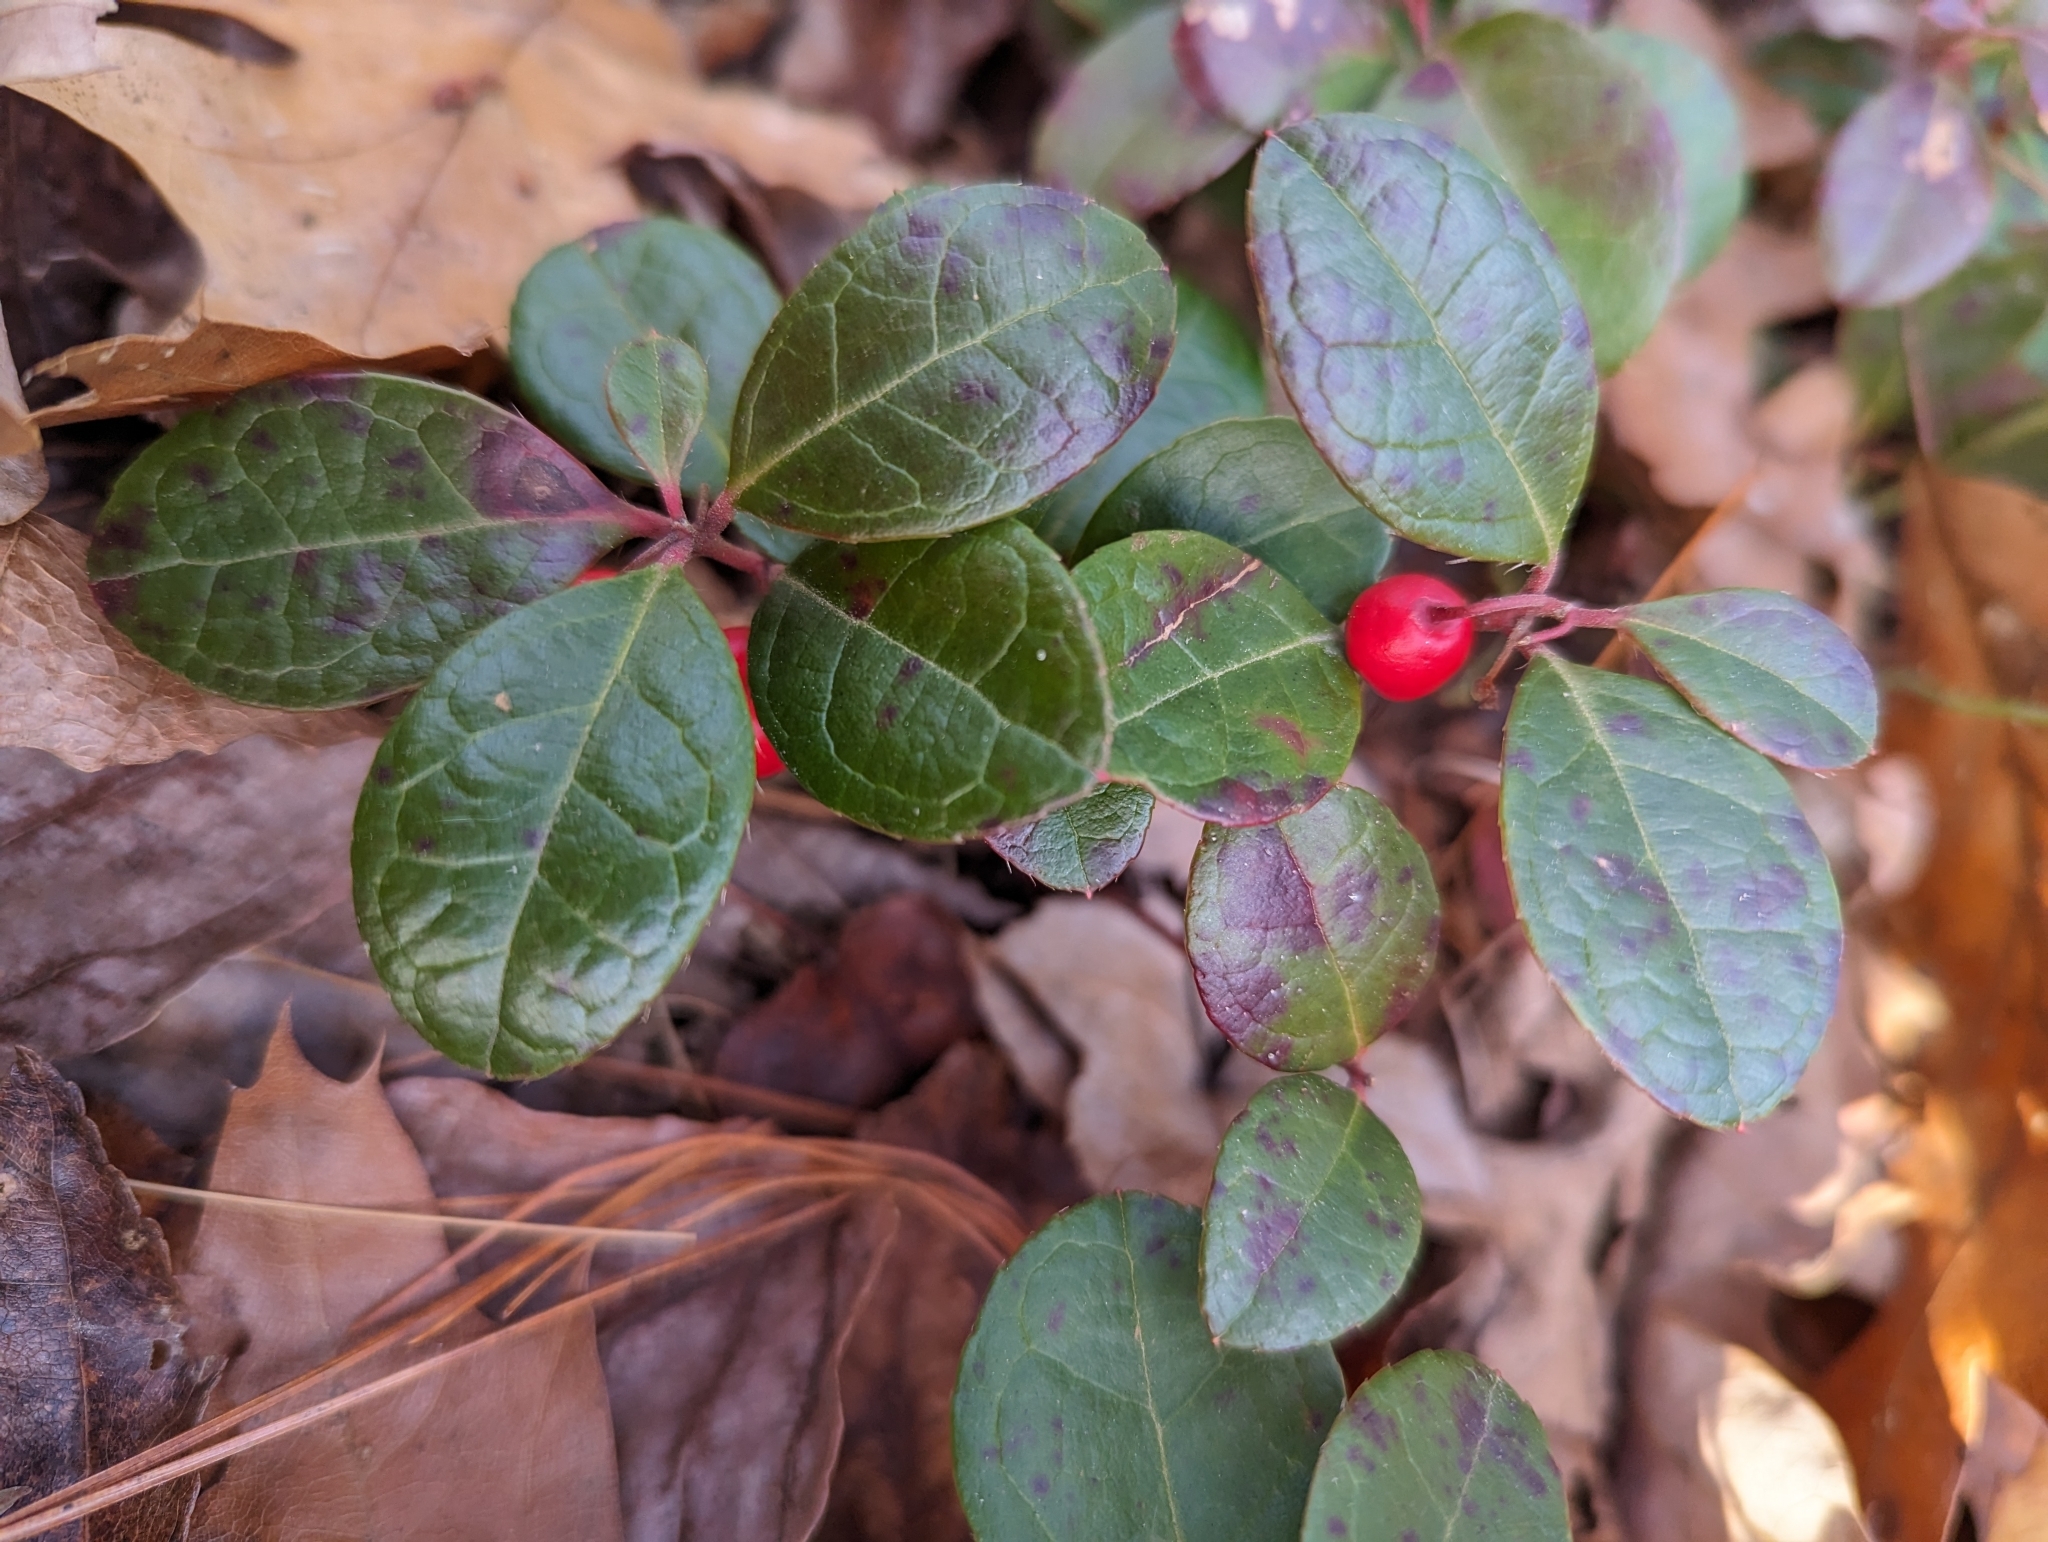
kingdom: Plantae
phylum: Tracheophyta
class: Magnoliopsida
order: Ericales
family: Ericaceae
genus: Gaultheria
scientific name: Gaultheria procumbens
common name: Checkerberry
